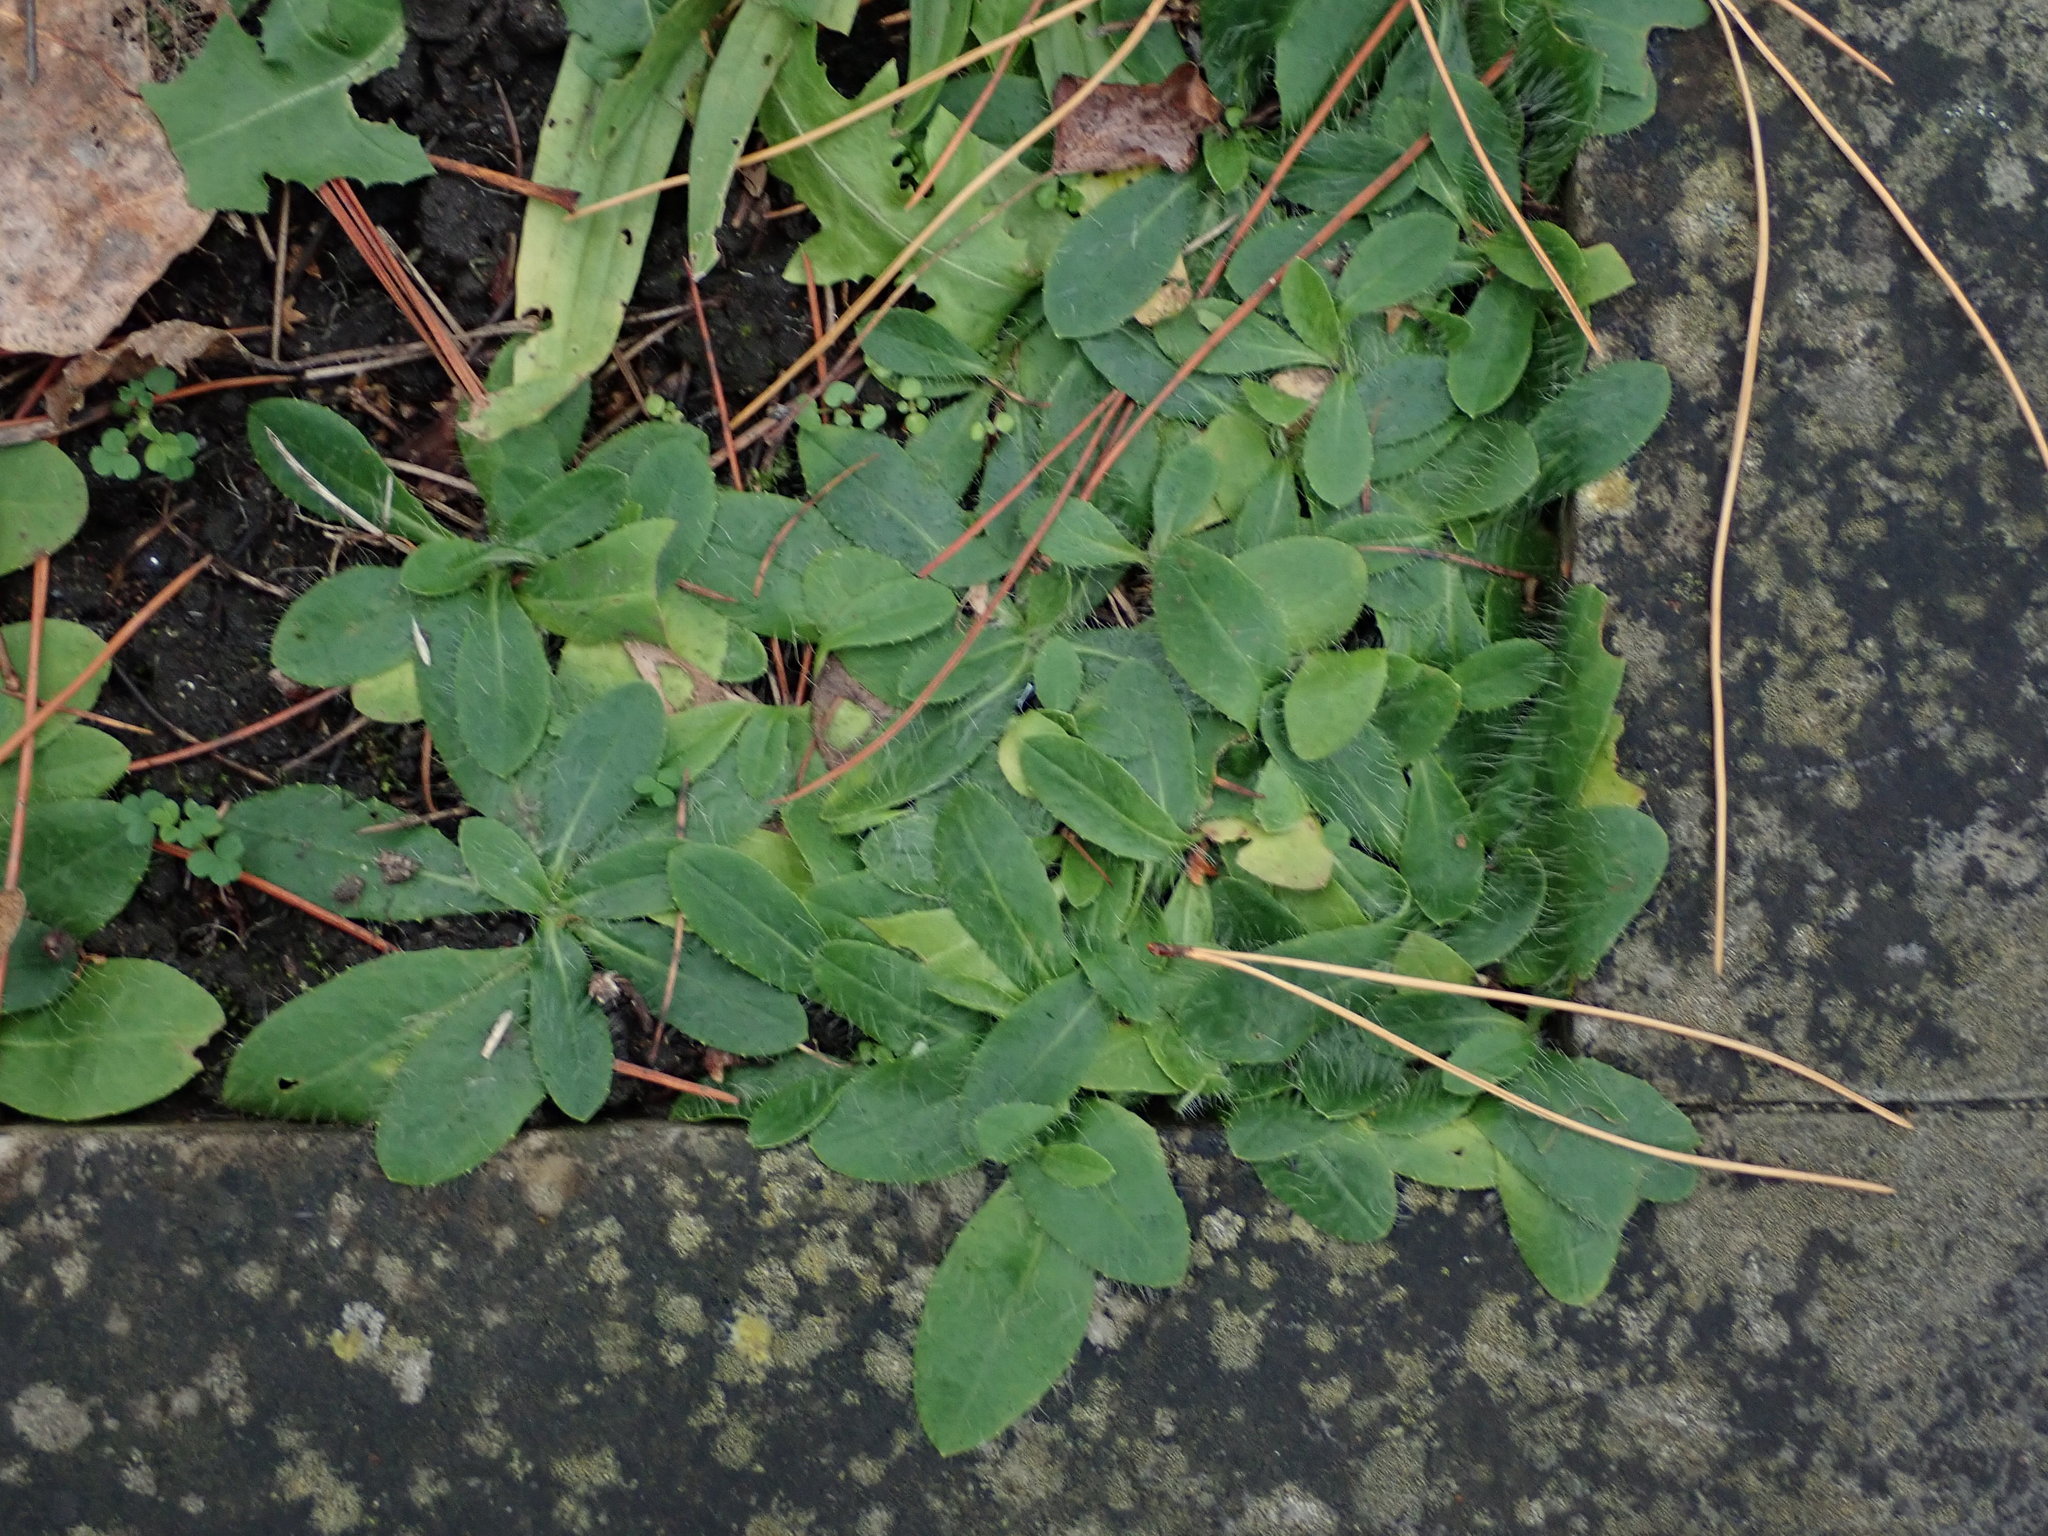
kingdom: Plantae
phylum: Tracheophyta
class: Magnoliopsida
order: Asterales
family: Asteraceae
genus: Pilosella
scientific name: Pilosella officinarum
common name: Mouse-ear hawkweed
